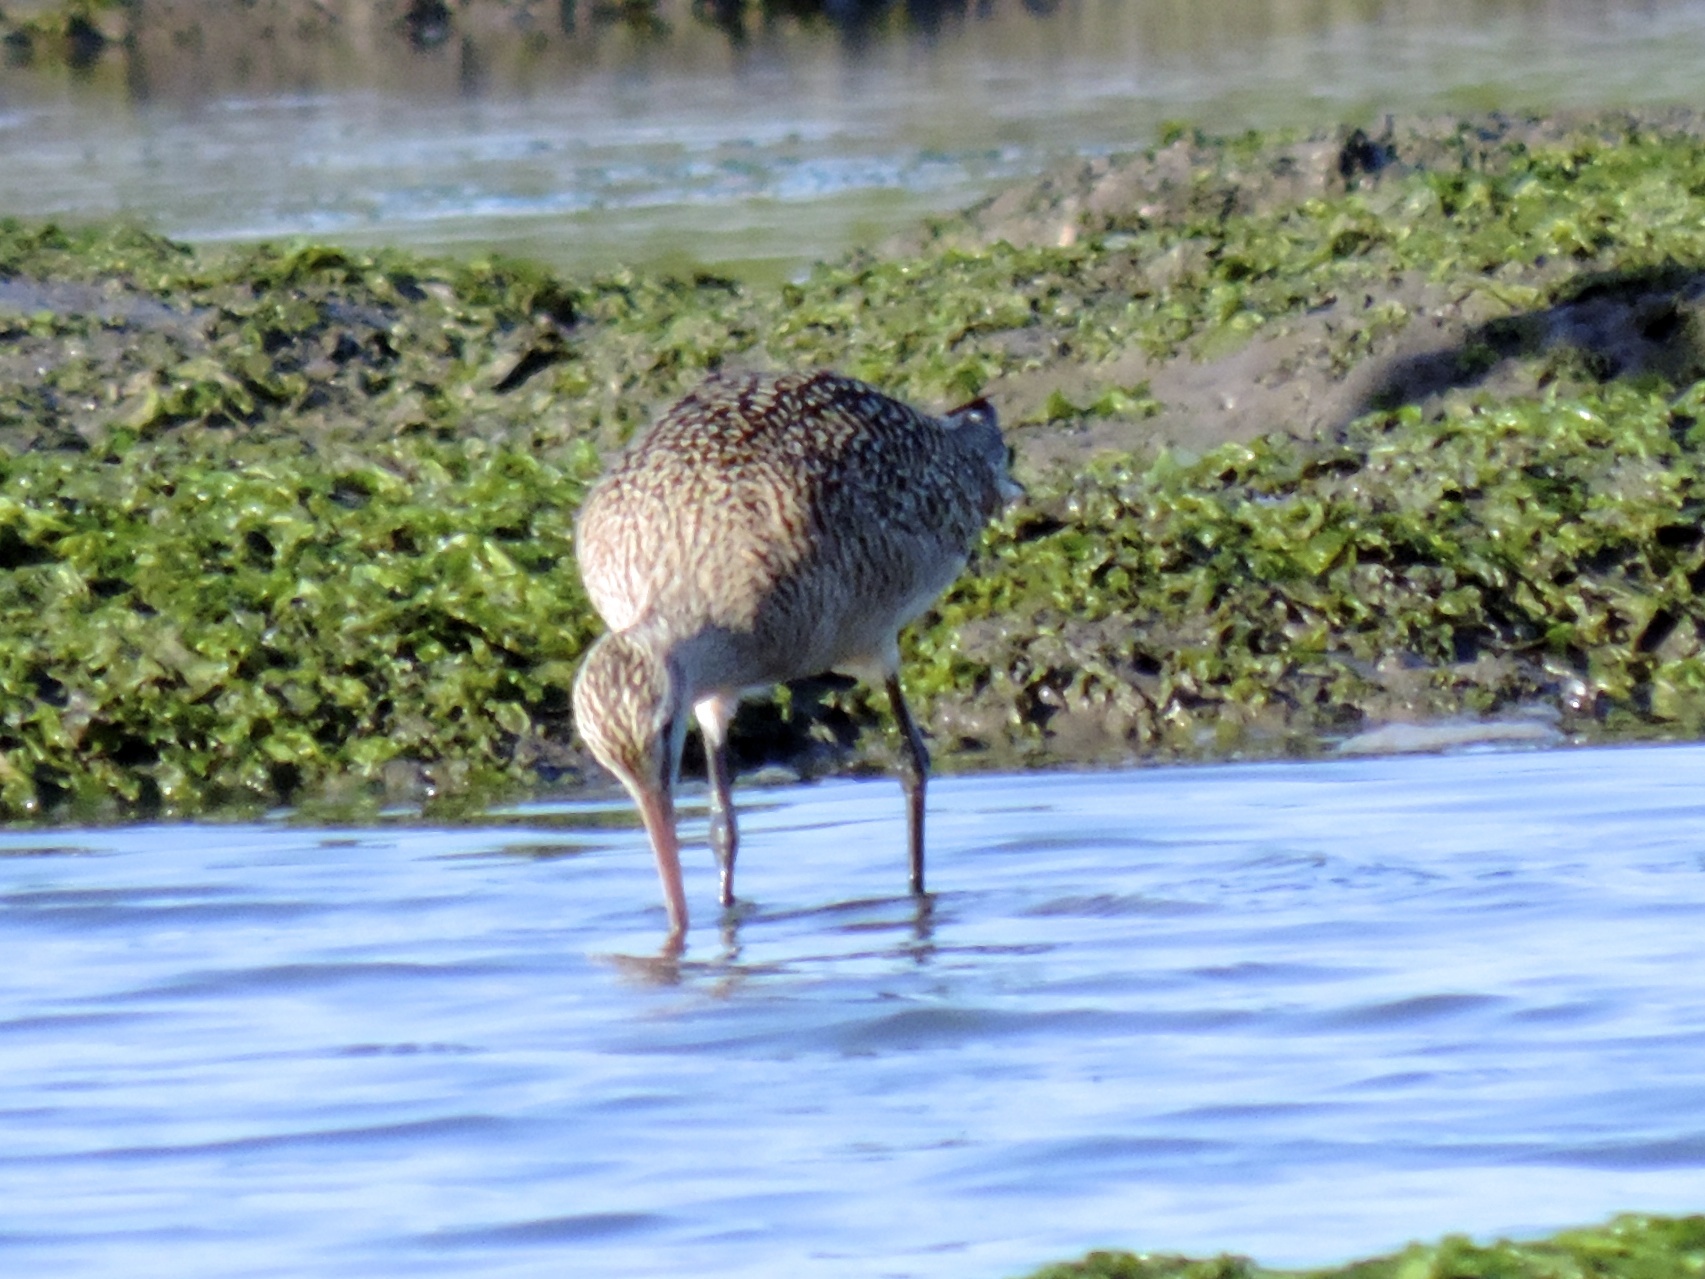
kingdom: Animalia
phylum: Chordata
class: Aves
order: Charadriiformes
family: Scolopacidae
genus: Limosa
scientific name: Limosa fedoa
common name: Marbled godwit
